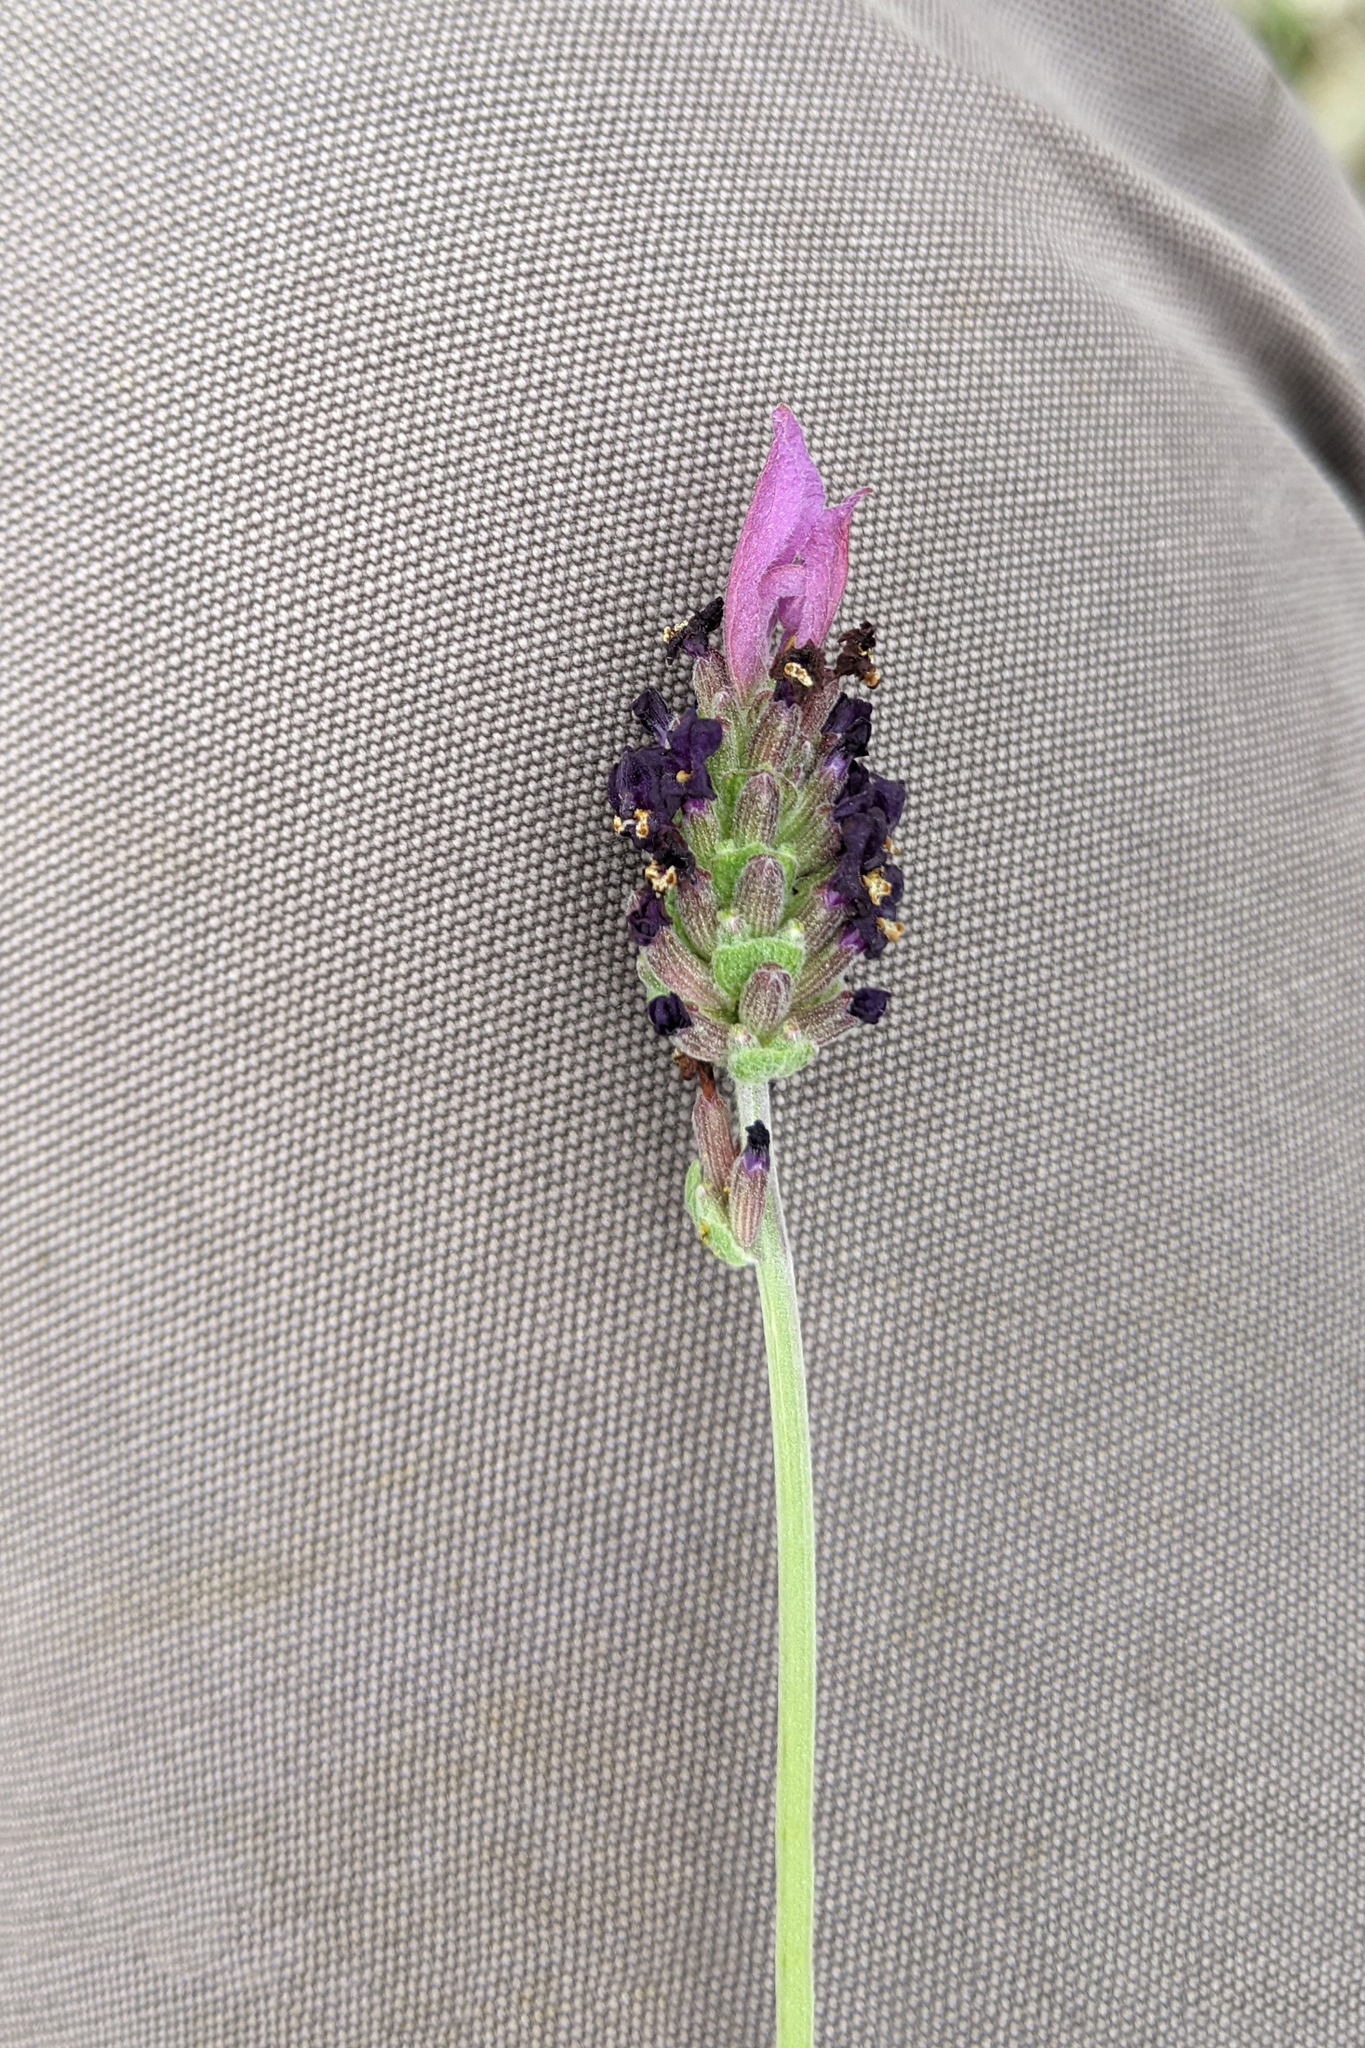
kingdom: Plantae
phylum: Tracheophyta
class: Magnoliopsida
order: Lamiales
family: Lamiaceae
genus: Lavandula
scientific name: Lavandula pedunculata
